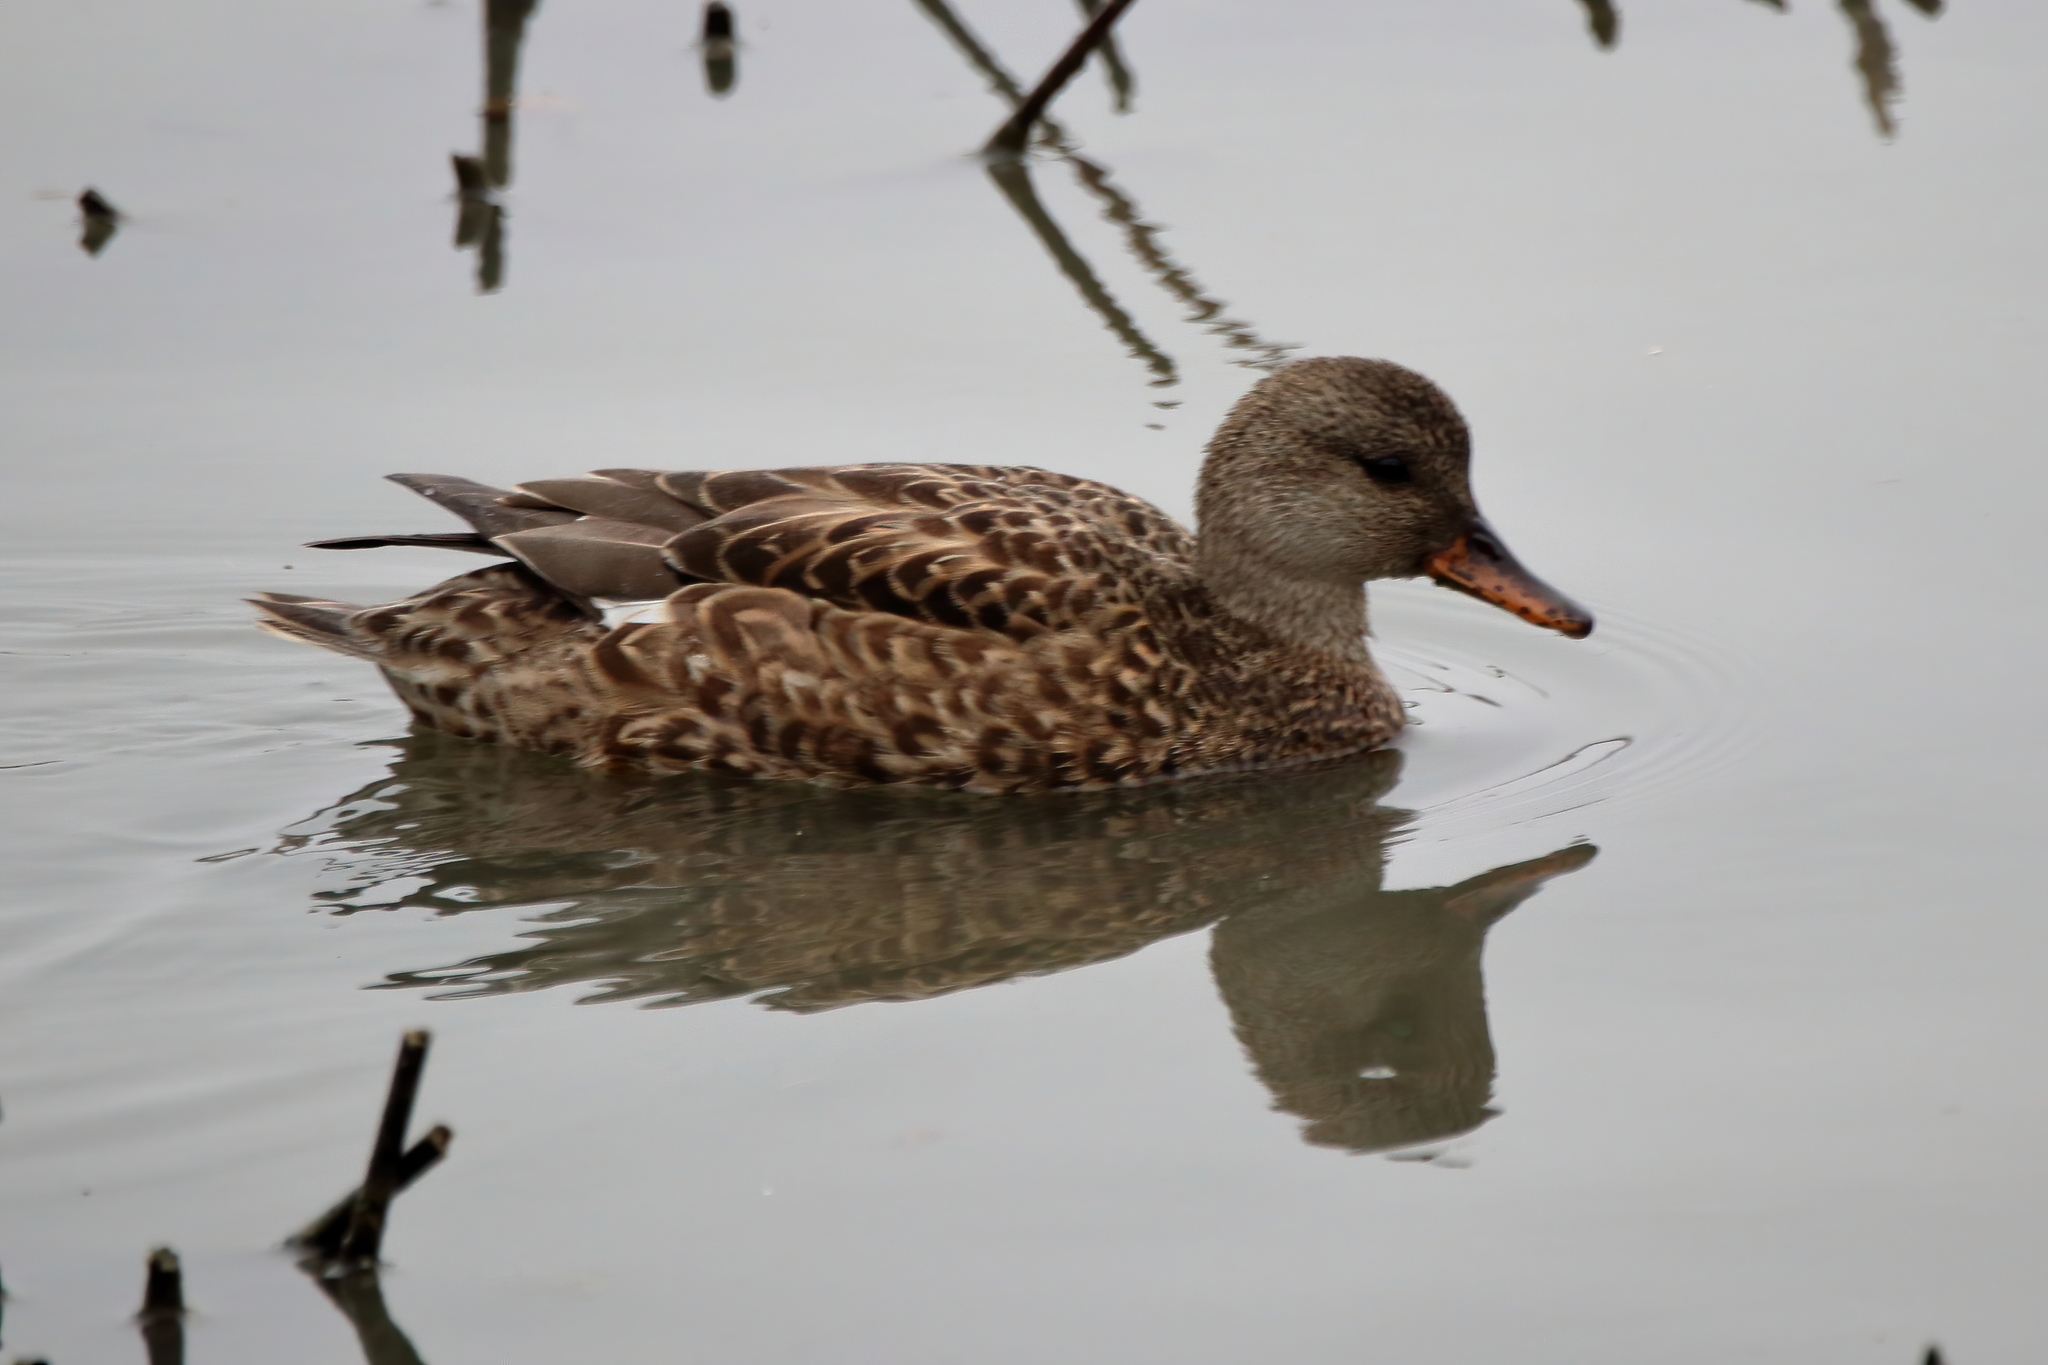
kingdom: Animalia
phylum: Chordata
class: Aves
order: Anseriformes
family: Anatidae
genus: Mareca
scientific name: Mareca strepera
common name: Gadwall
